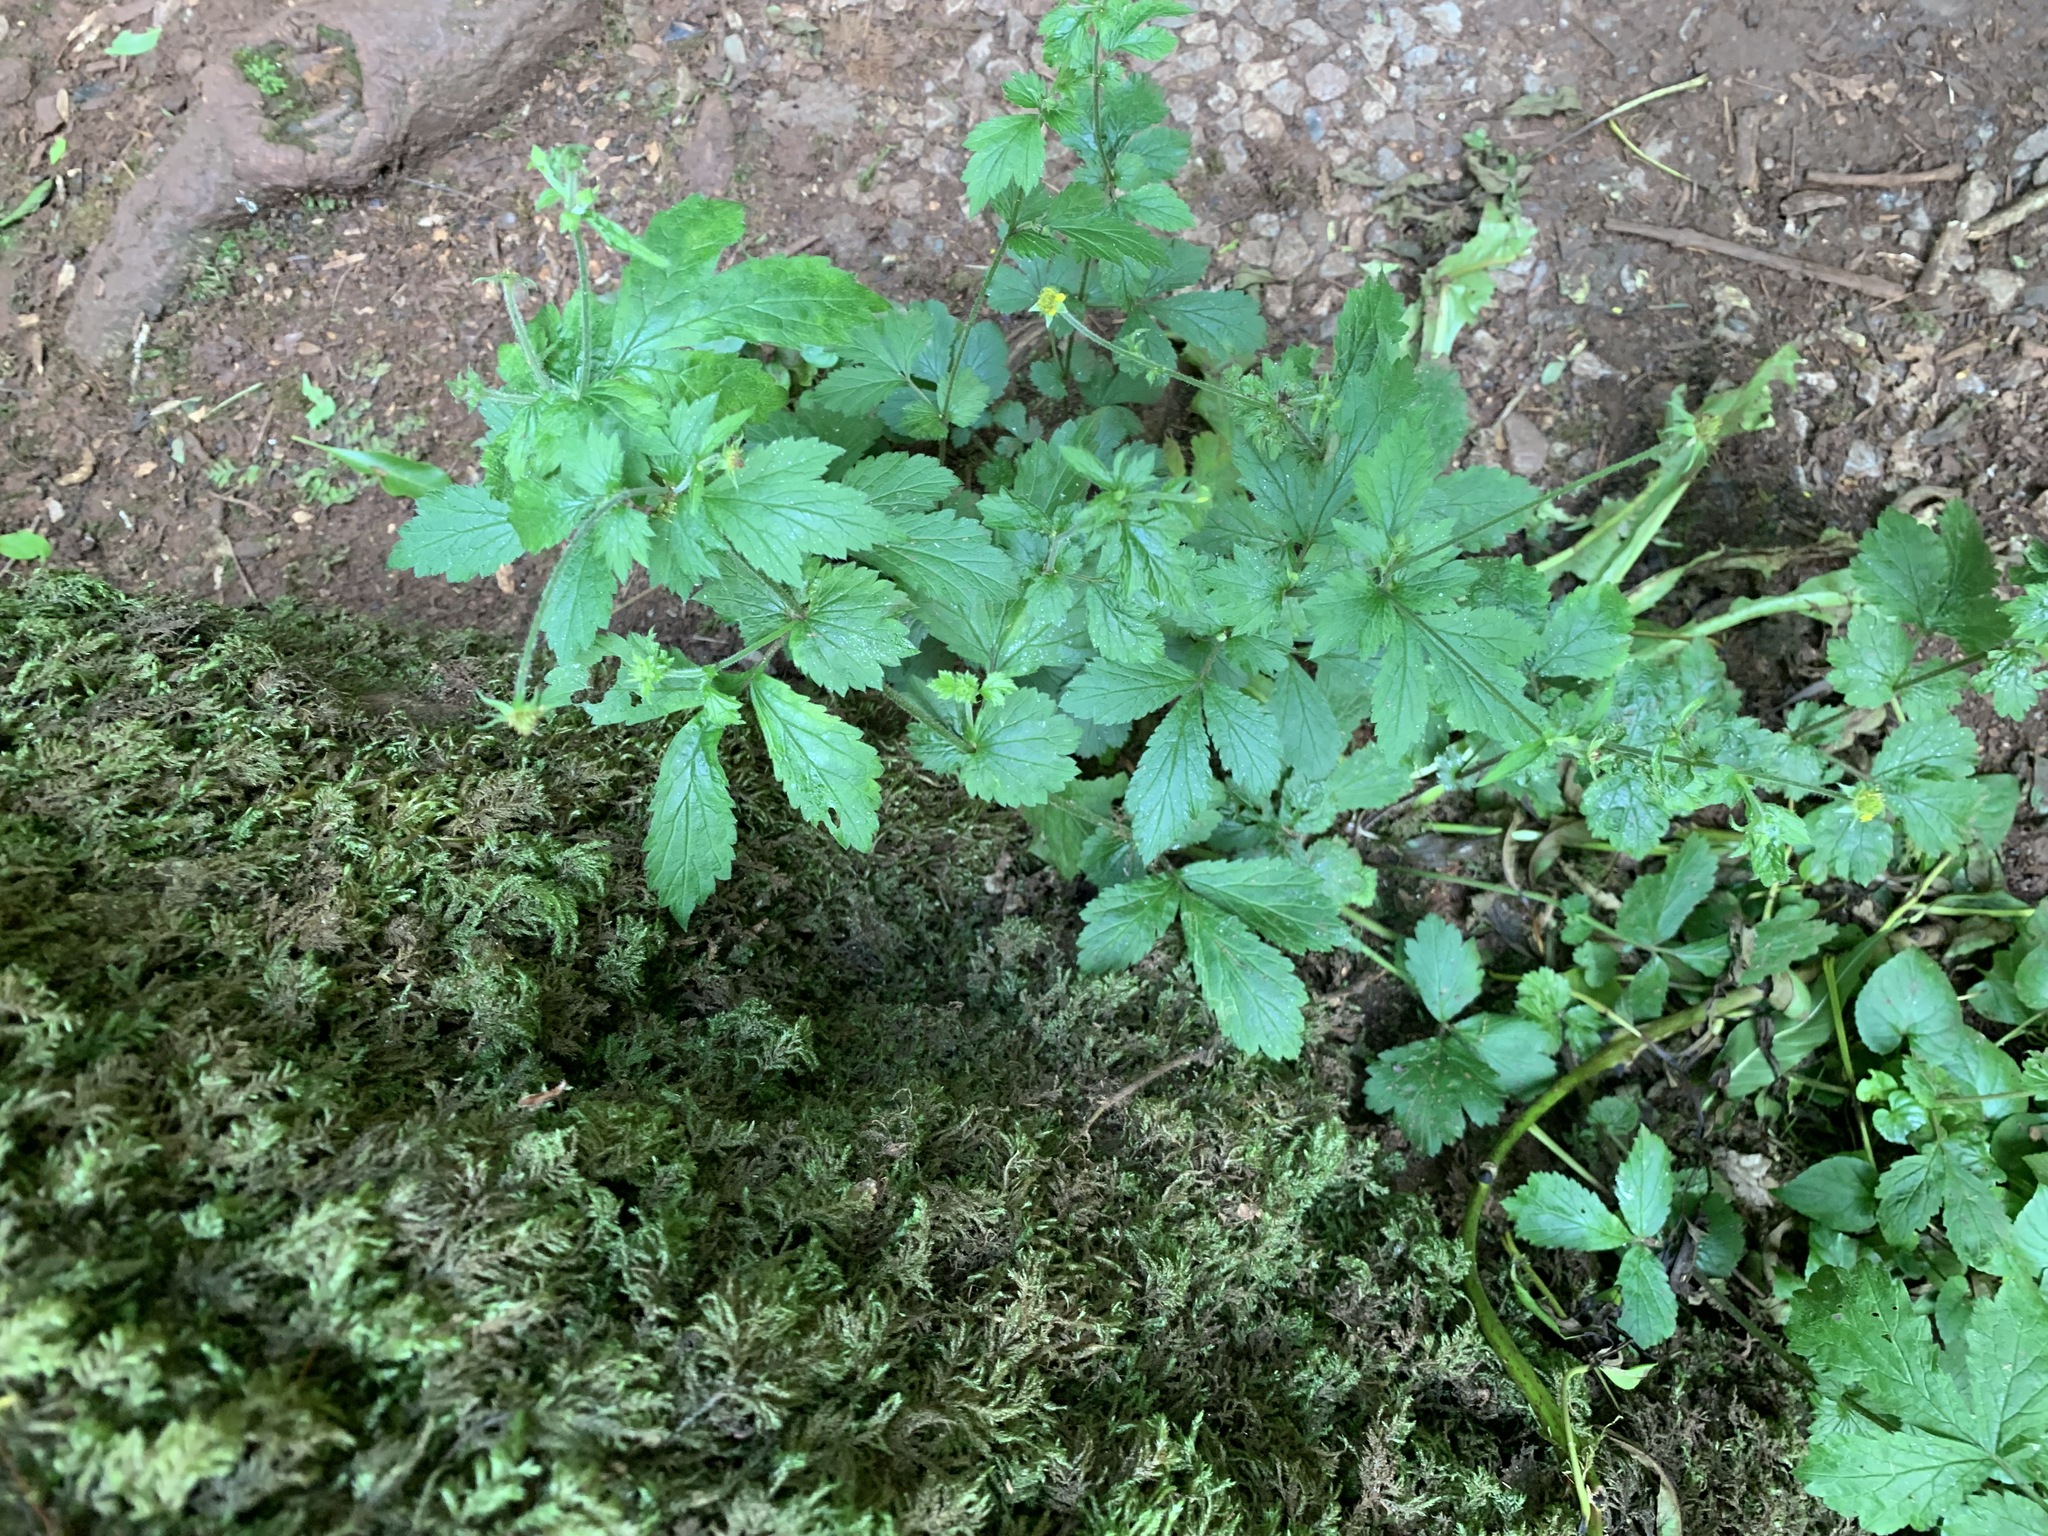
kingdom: Plantae
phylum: Tracheophyta
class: Magnoliopsida
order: Rosales
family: Rosaceae
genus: Geum
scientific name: Geum urbanum
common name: Wood avens
